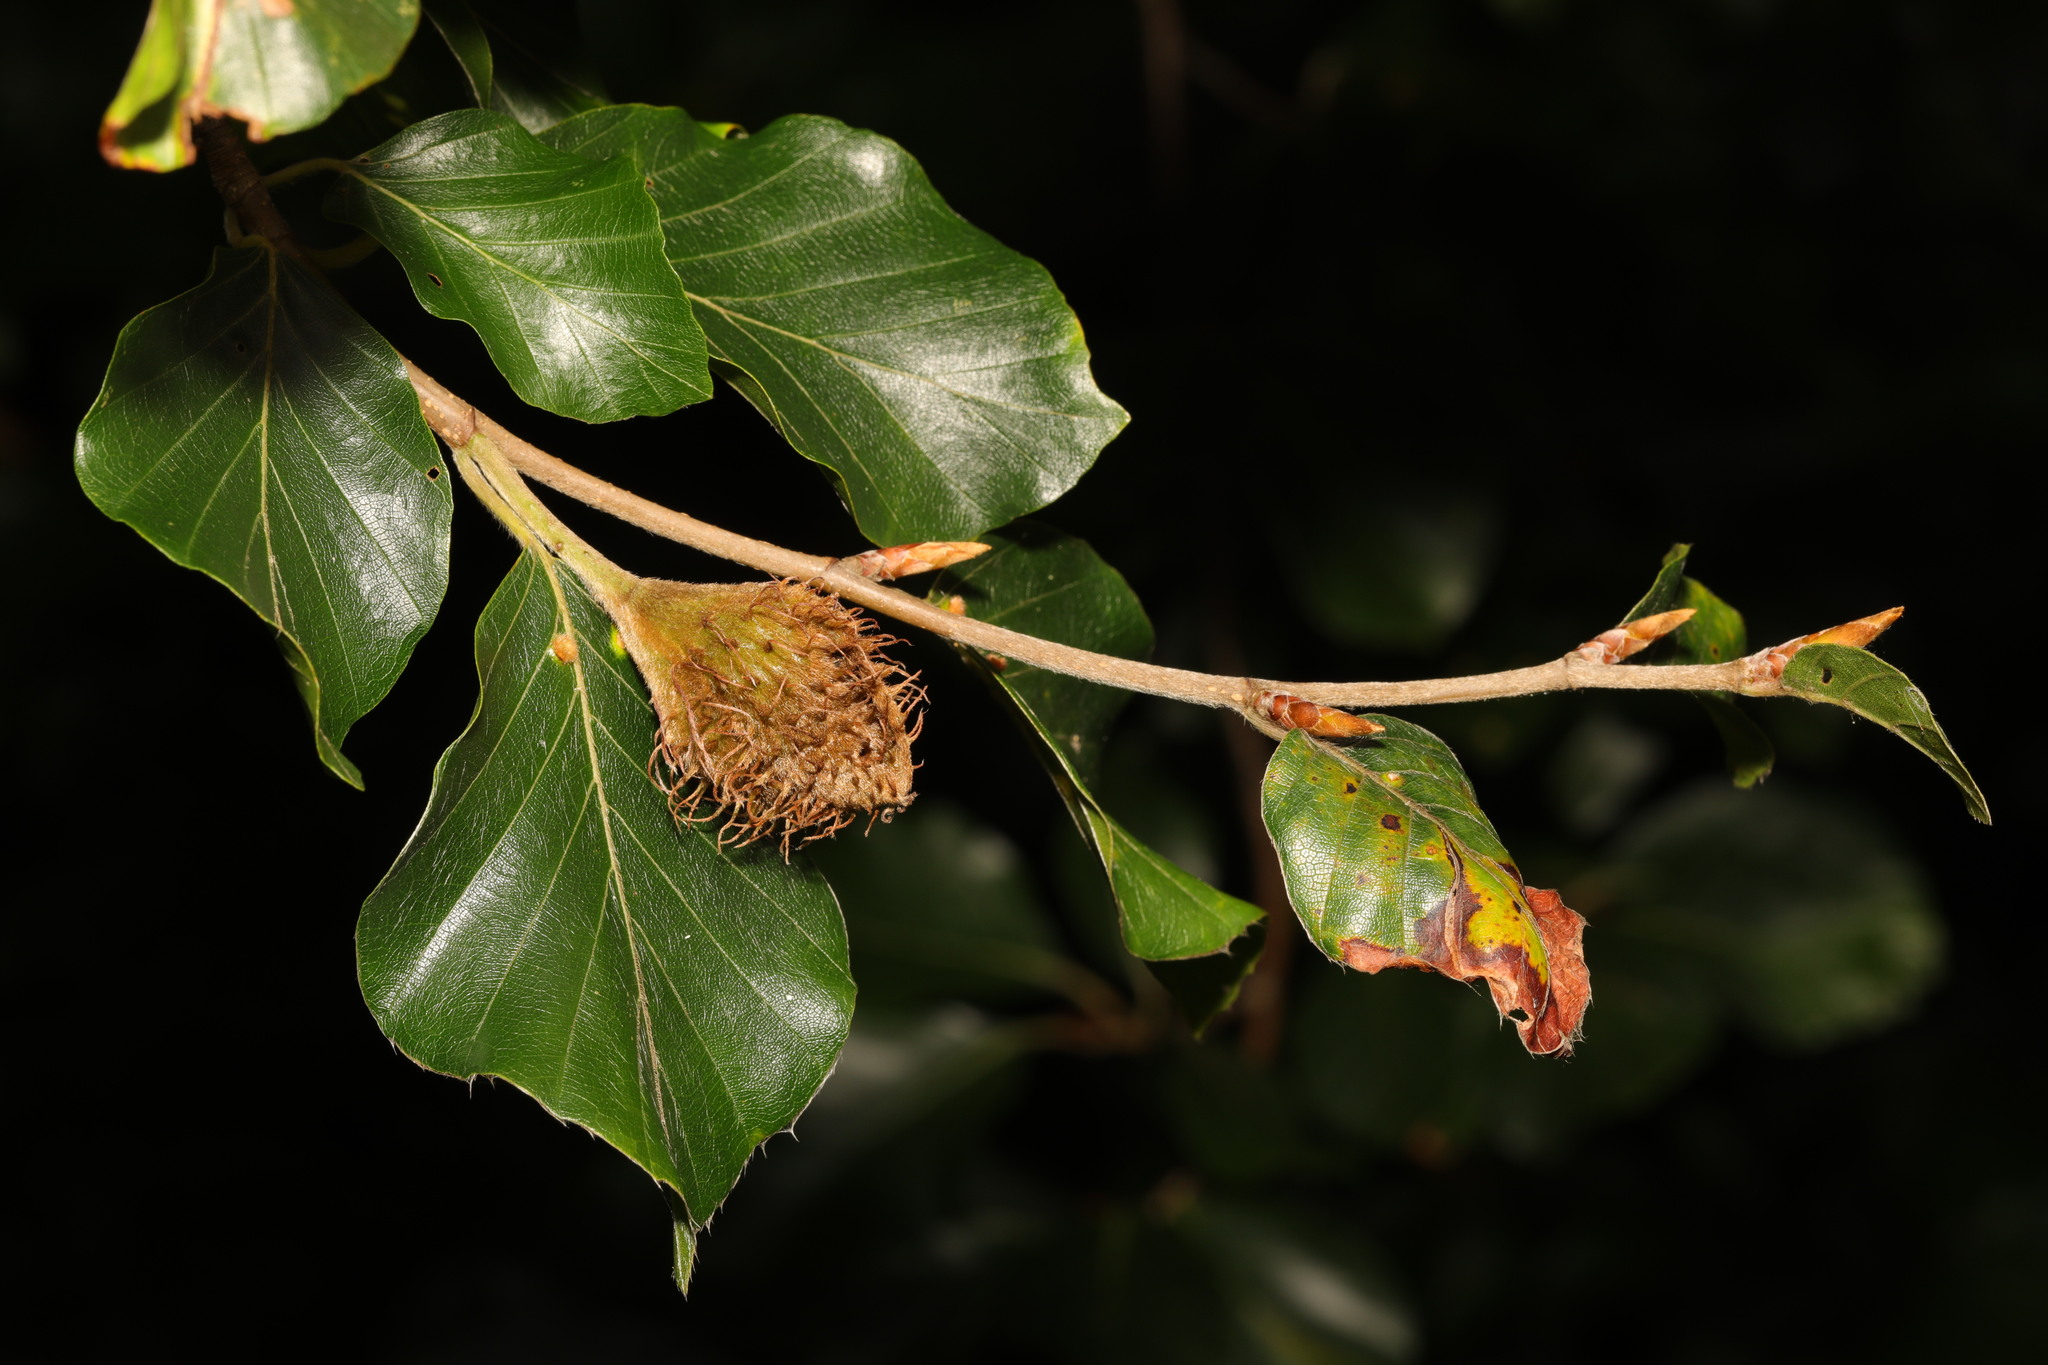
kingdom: Plantae
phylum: Tracheophyta
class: Magnoliopsida
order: Fagales
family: Fagaceae
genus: Fagus
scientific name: Fagus sylvatica
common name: Beech
